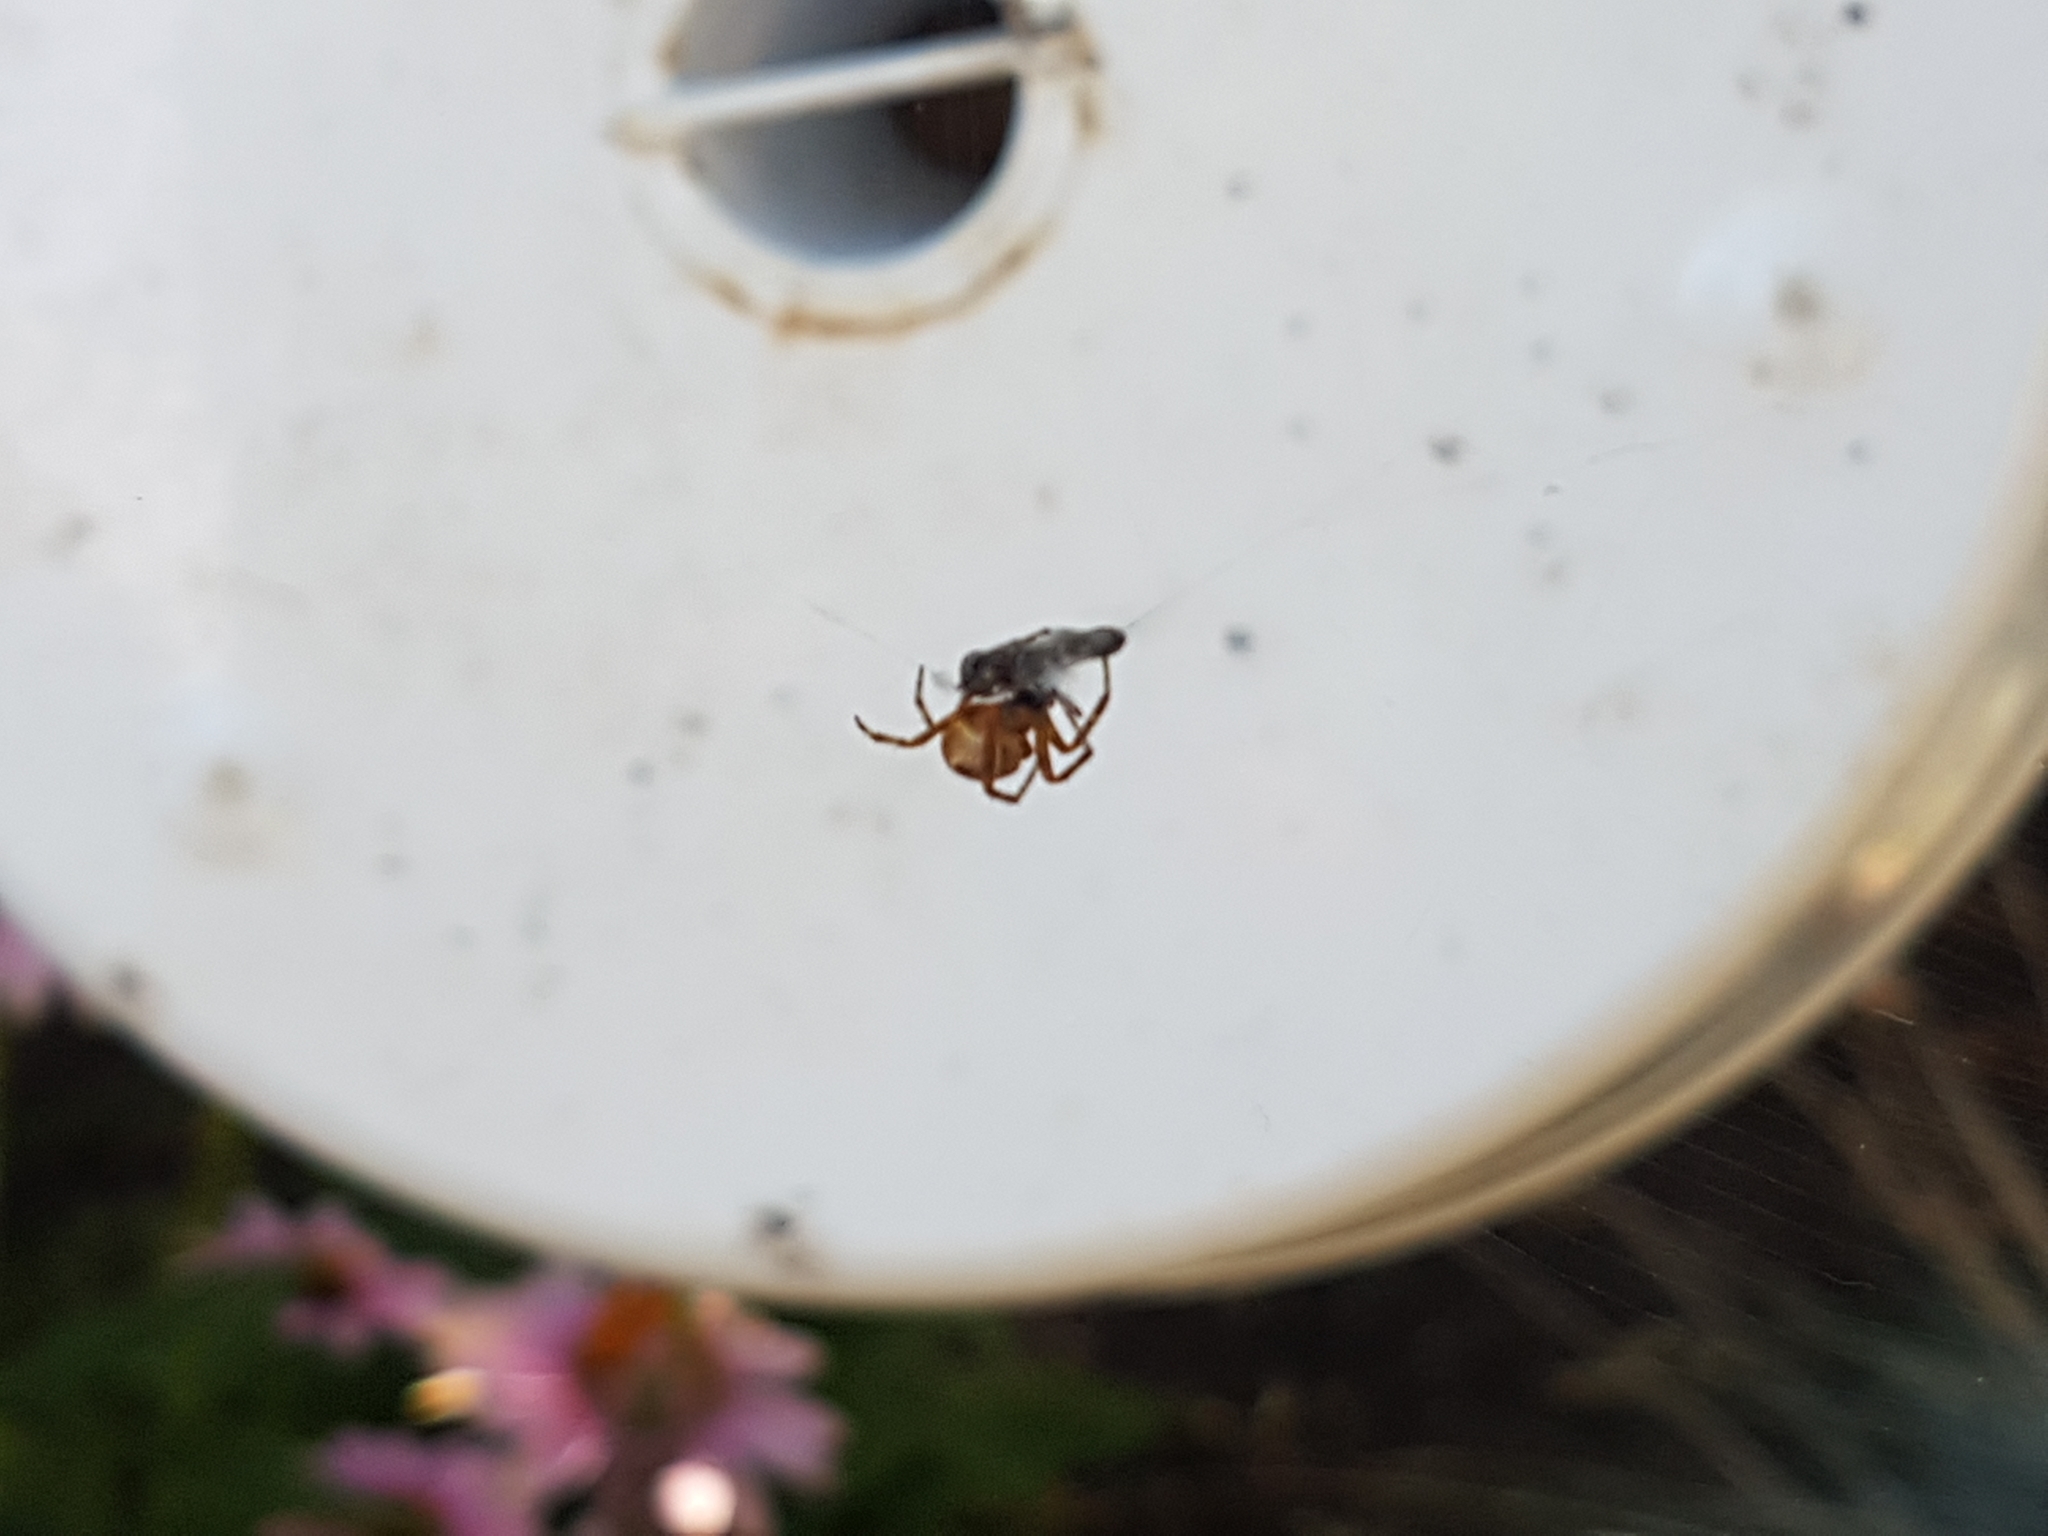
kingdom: Animalia
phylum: Arthropoda
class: Arachnida
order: Araneae
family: Araneidae
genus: Araneus
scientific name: Araneus diadematus
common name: Cross orbweaver
